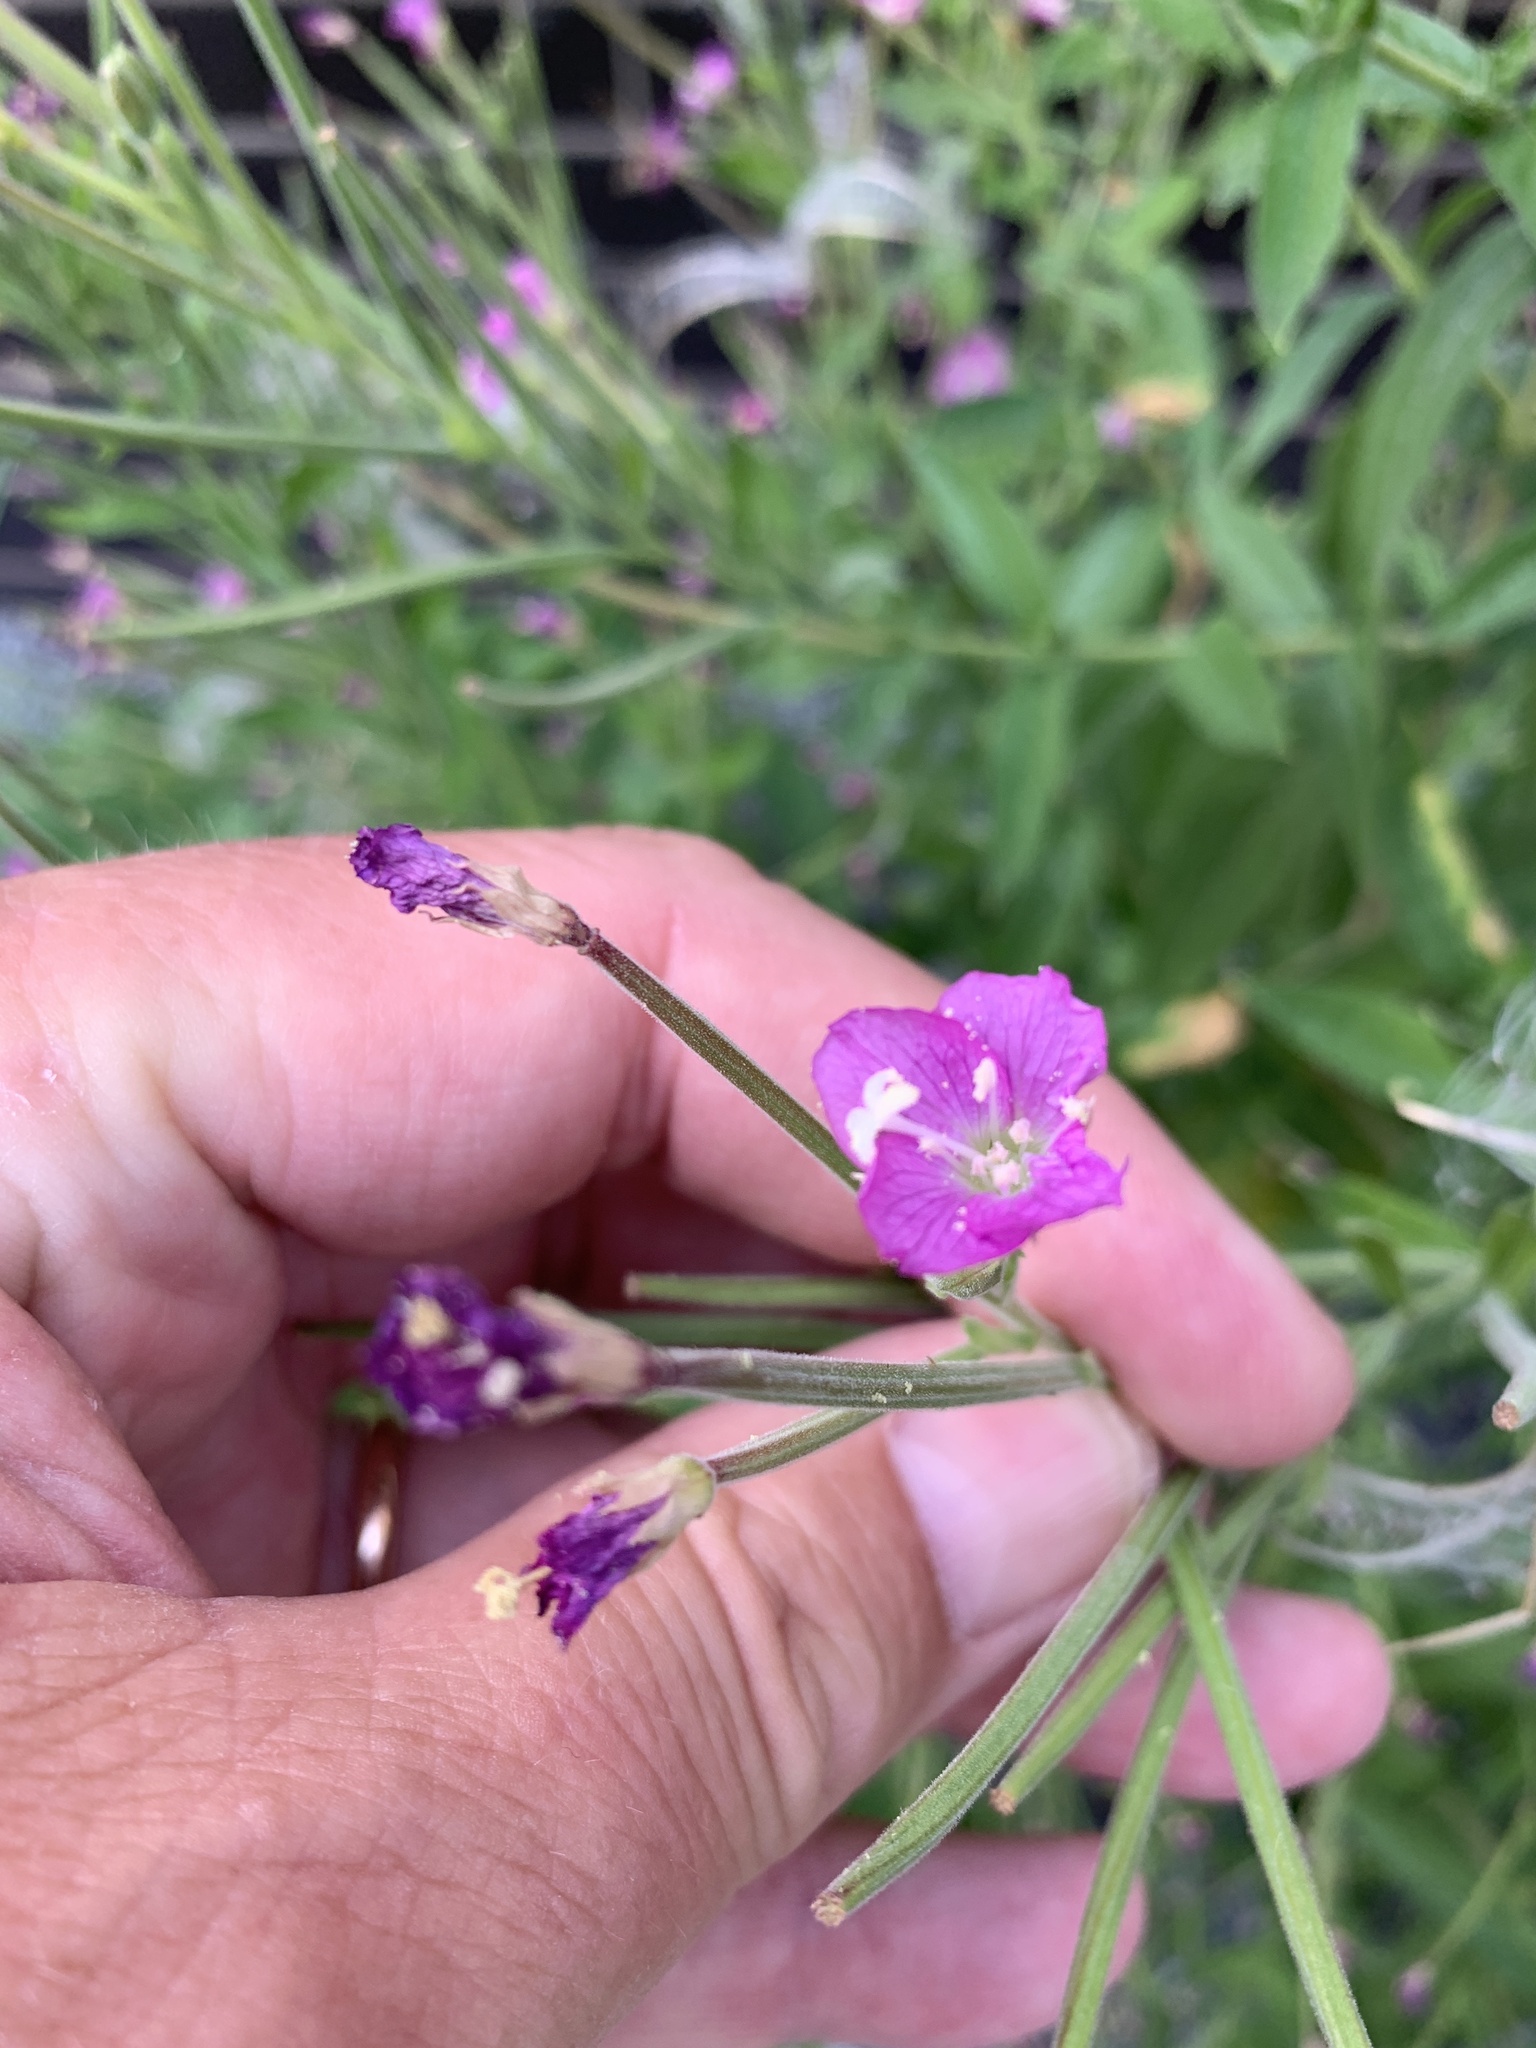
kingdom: Plantae
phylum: Tracheophyta
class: Magnoliopsida
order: Myrtales
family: Onagraceae
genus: Epilobium
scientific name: Epilobium hirsutum
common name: Great willowherb
